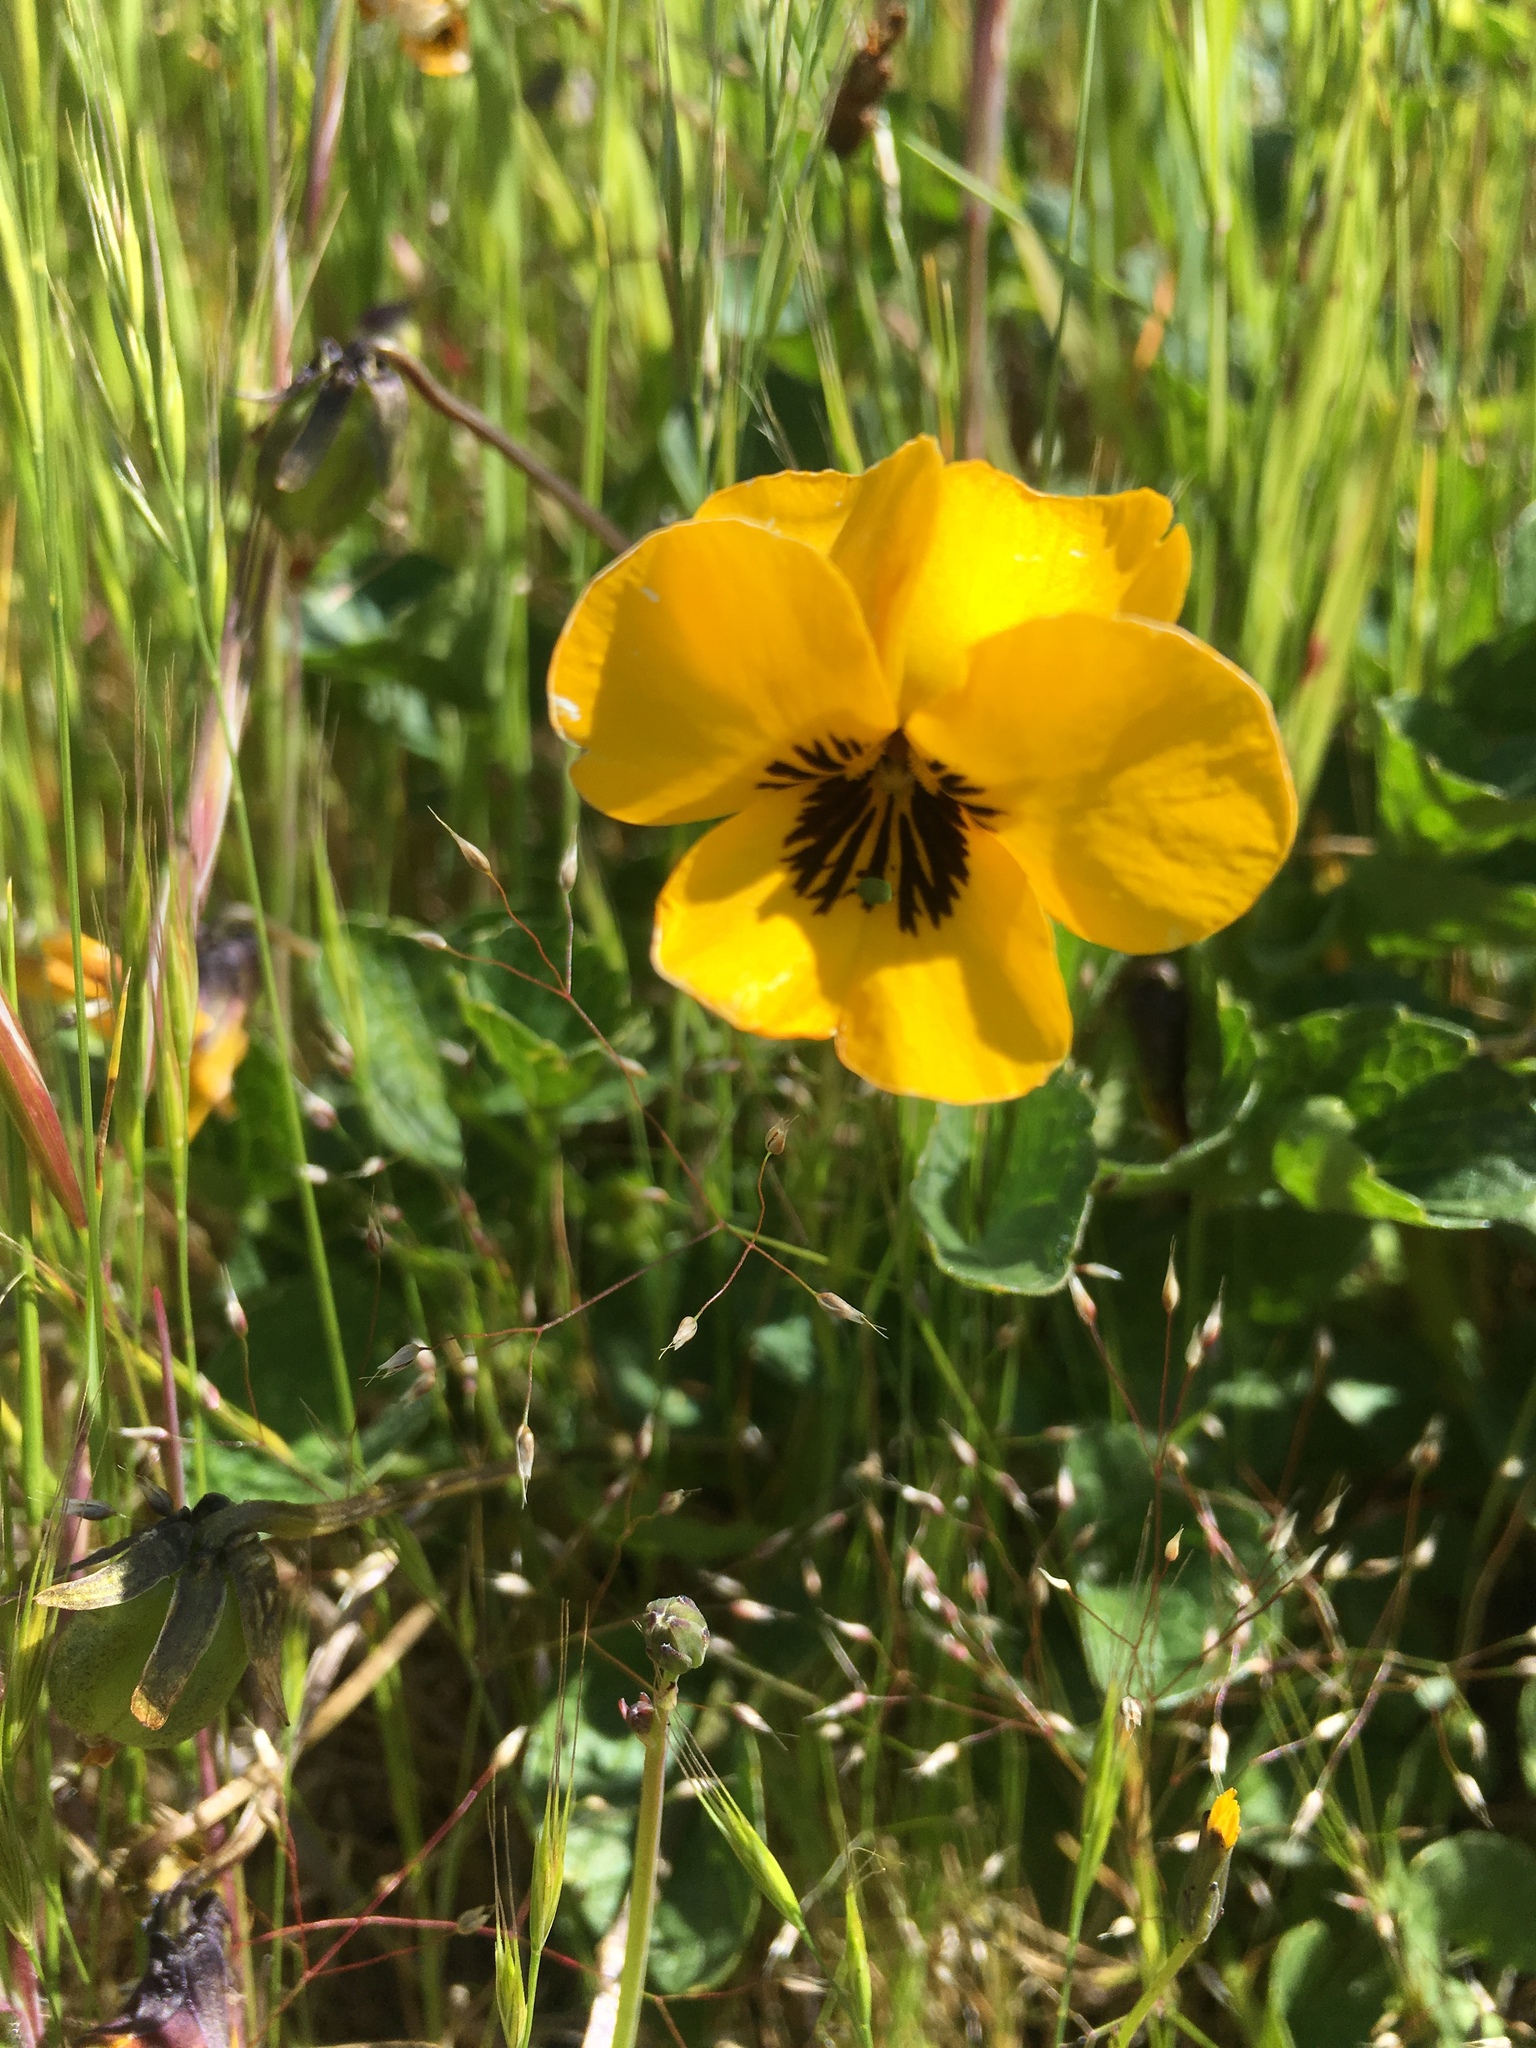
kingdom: Plantae
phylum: Tracheophyta
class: Magnoliopsida
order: Malpighiales
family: Violaceae
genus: Viola
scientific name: Viola pedunculata
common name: California golden violet
